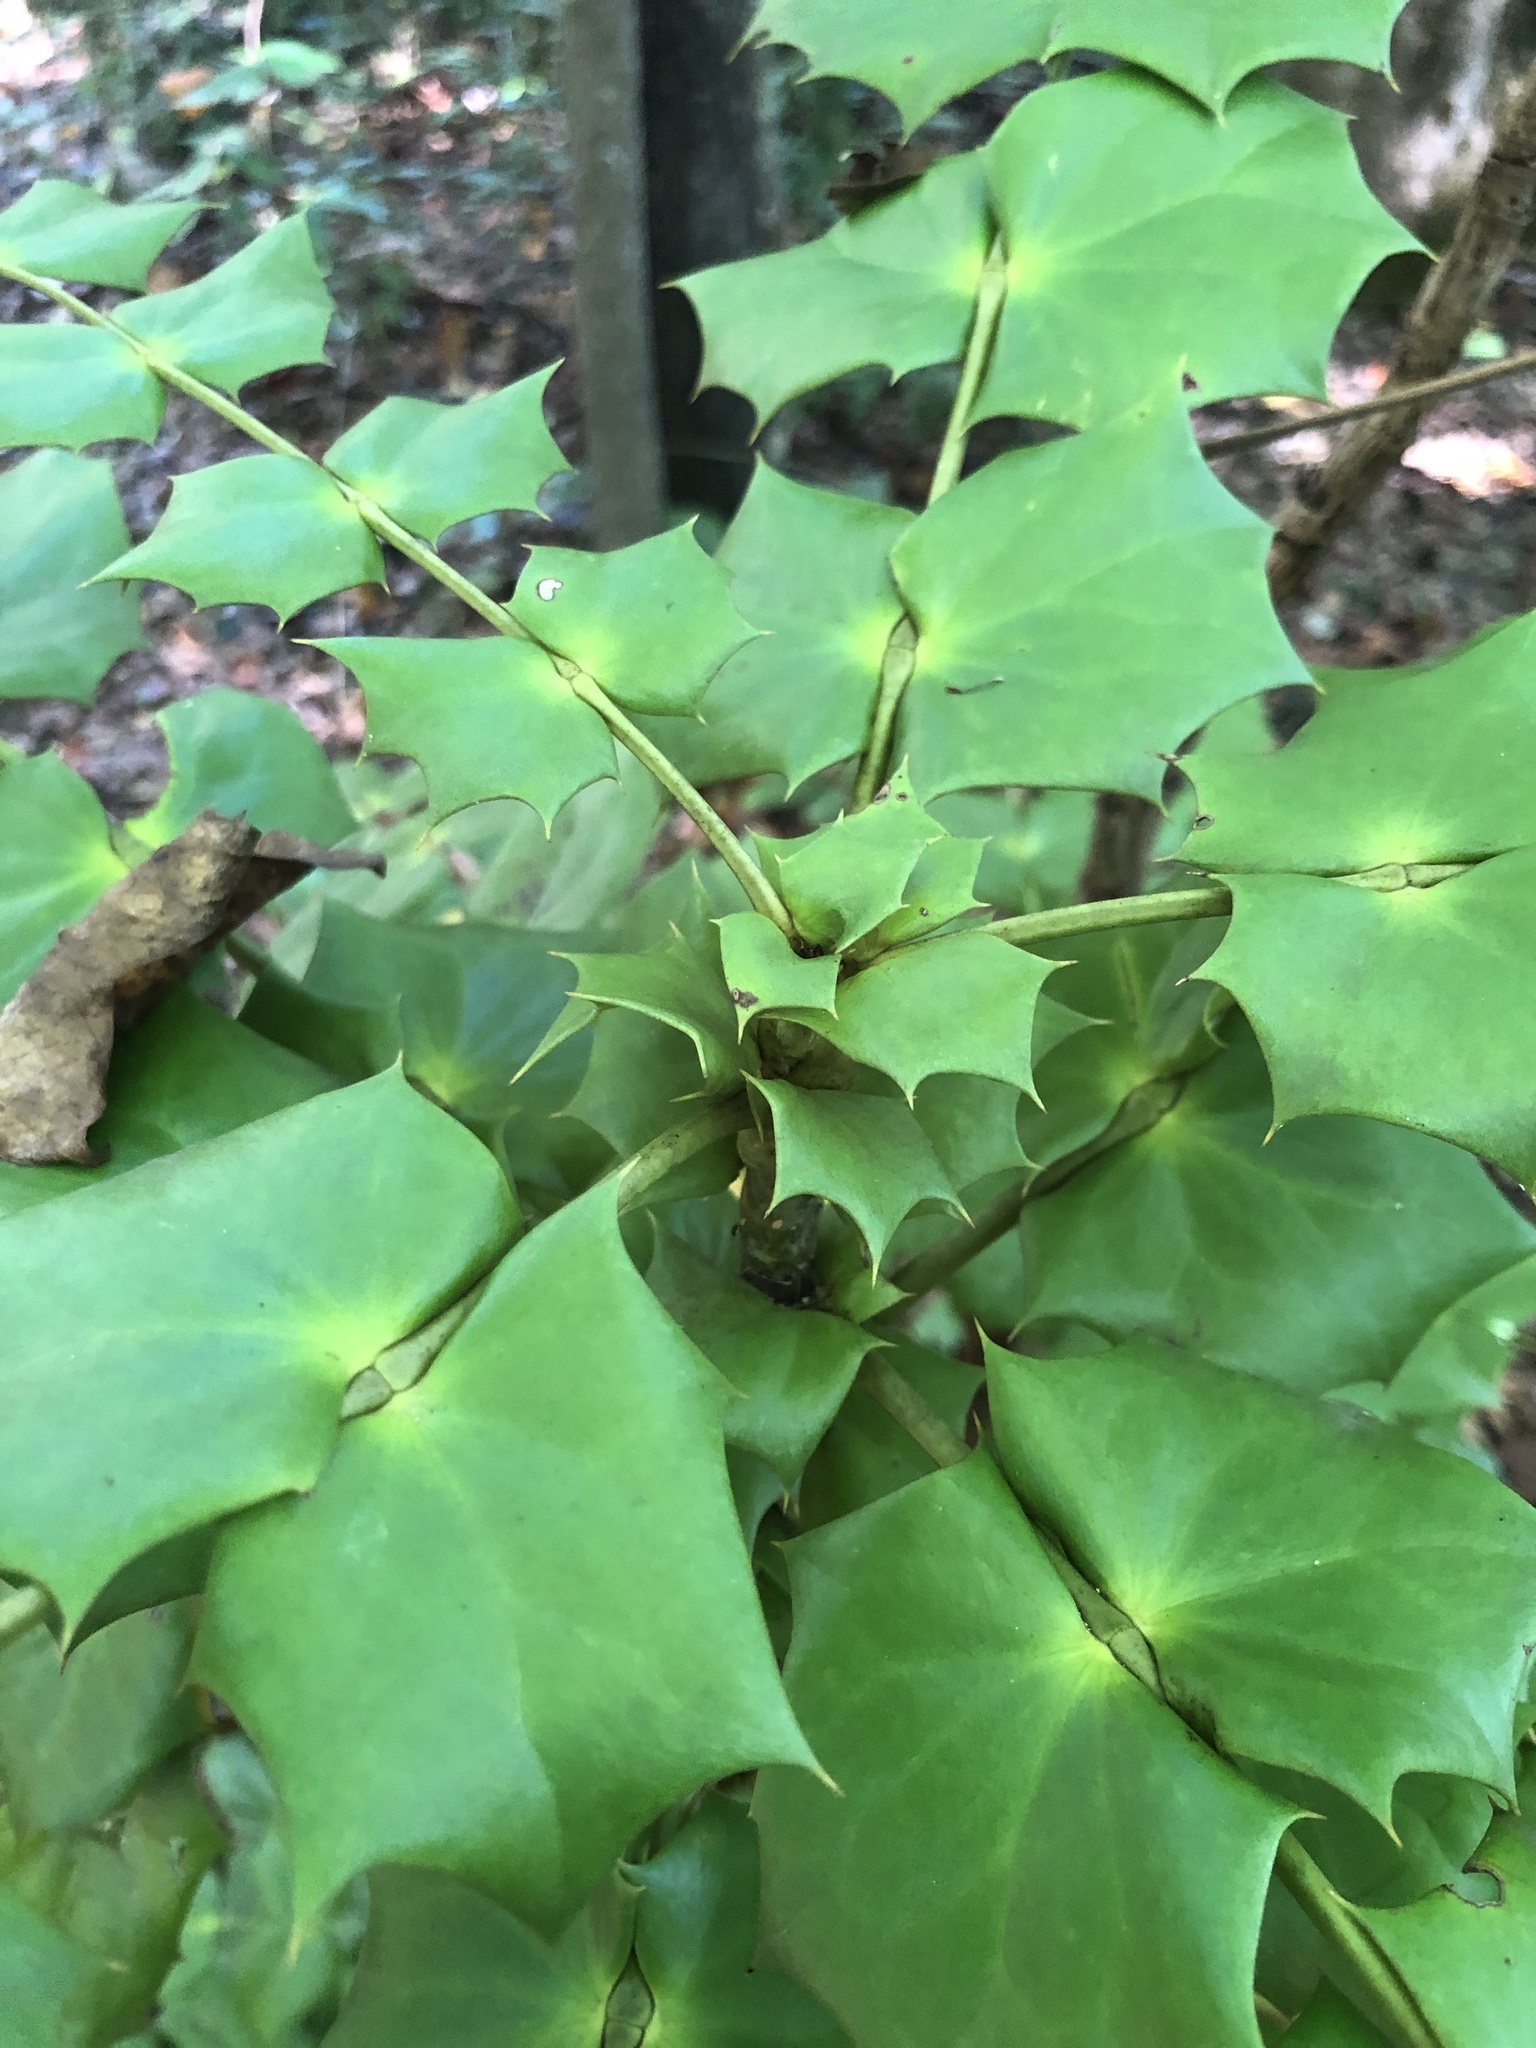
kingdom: Plantae
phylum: Tracheophyta
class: Magnoliopsida
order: Ranunculales
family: Berberidaceae
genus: Mahonia
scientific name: Mahonia bealei
